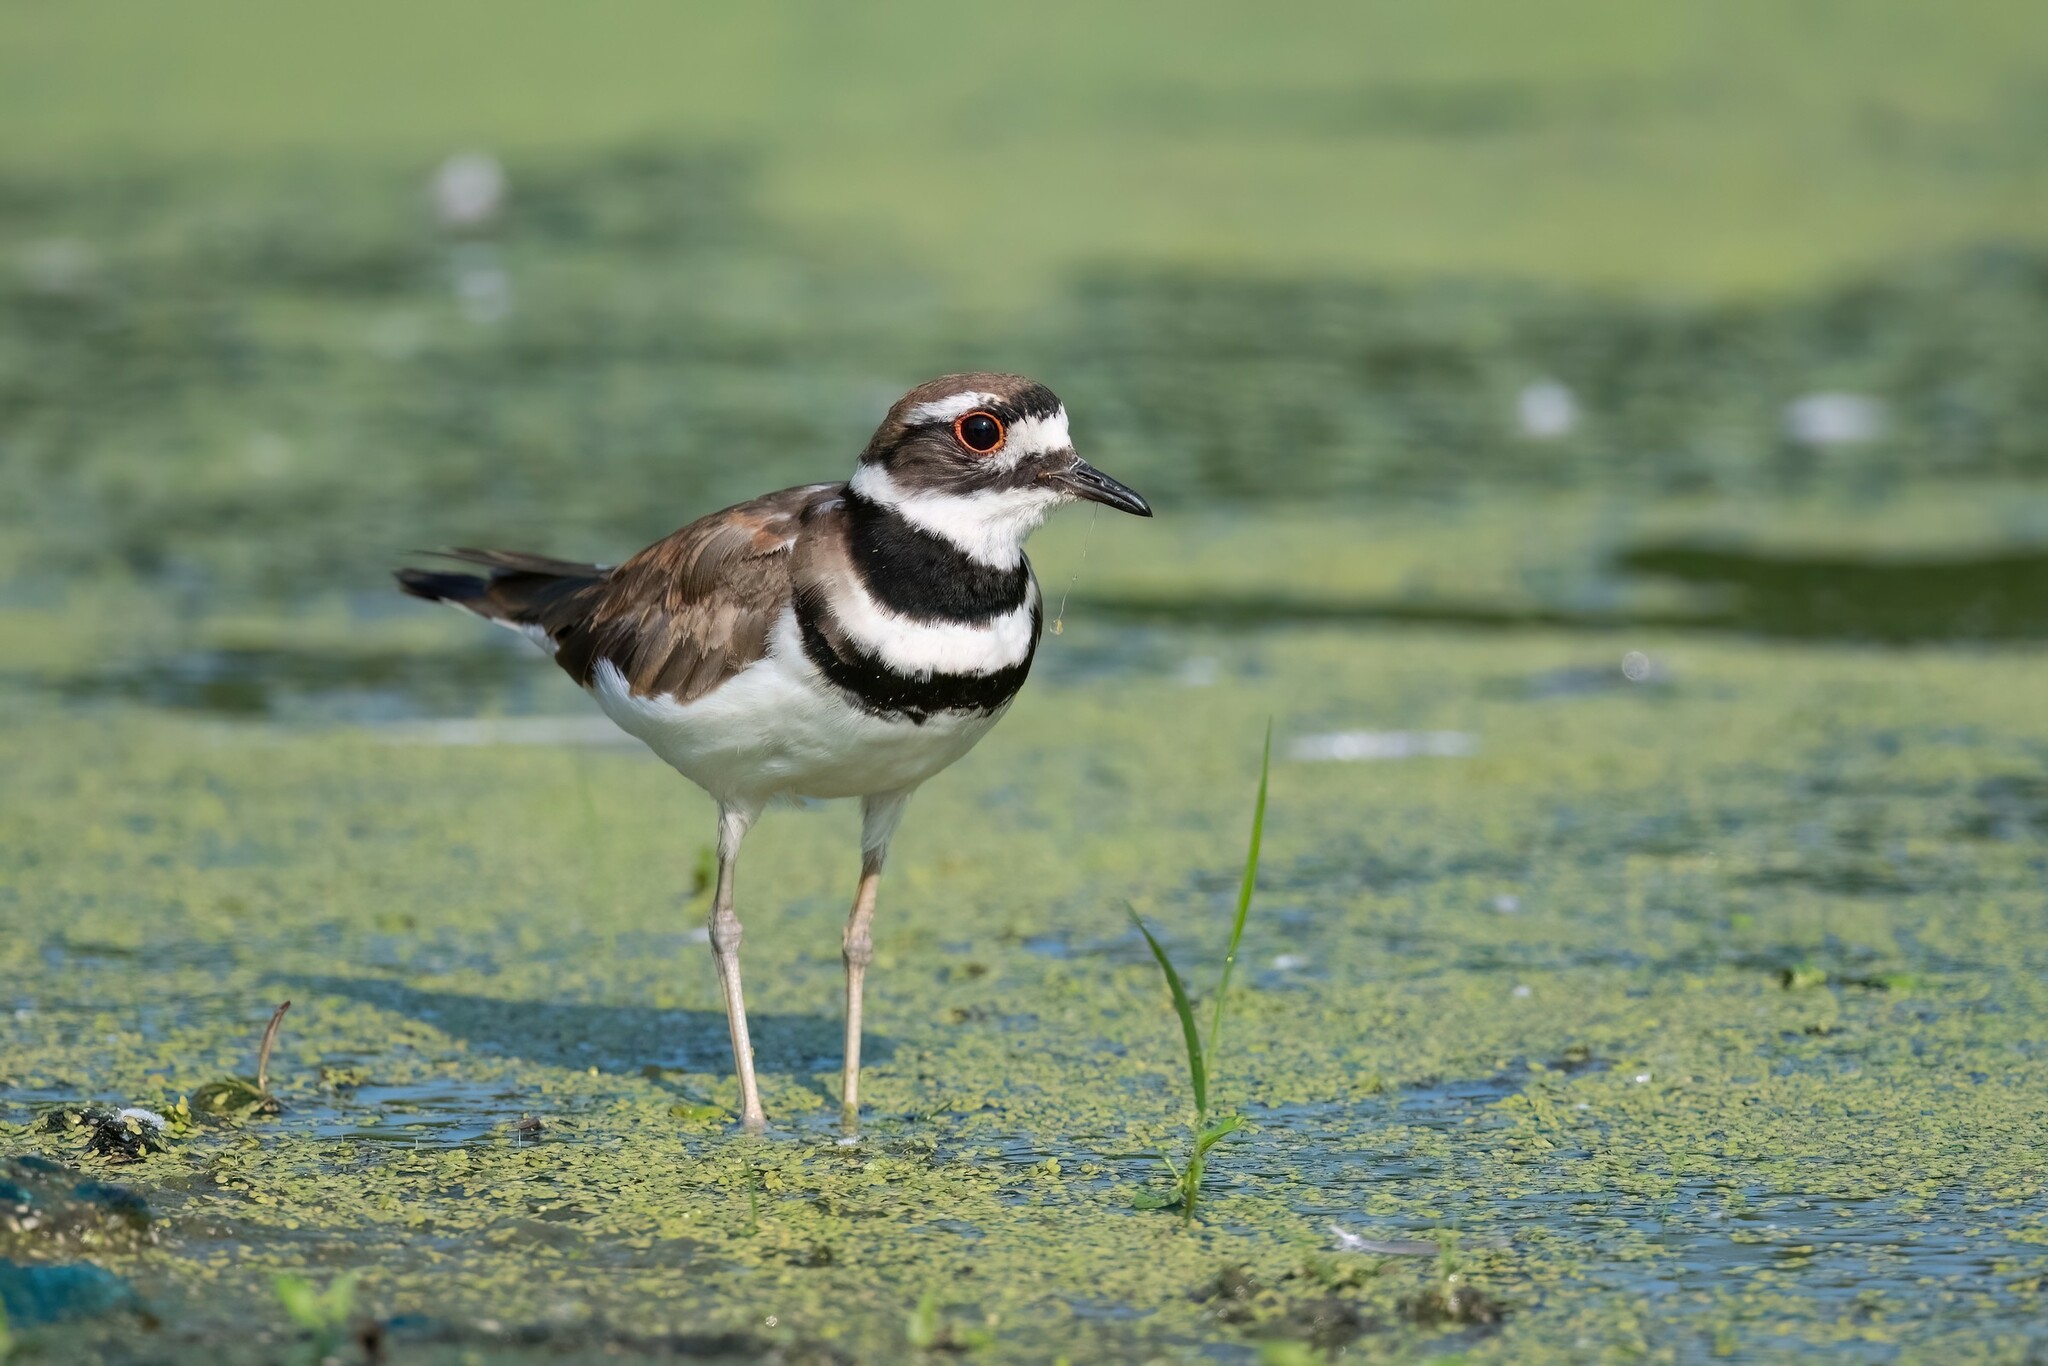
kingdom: Animalia
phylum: Chordata
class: Aves
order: Charadriiformes
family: Charadriidae
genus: Charadrius
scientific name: Charadrius vociferus
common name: Killdeer
